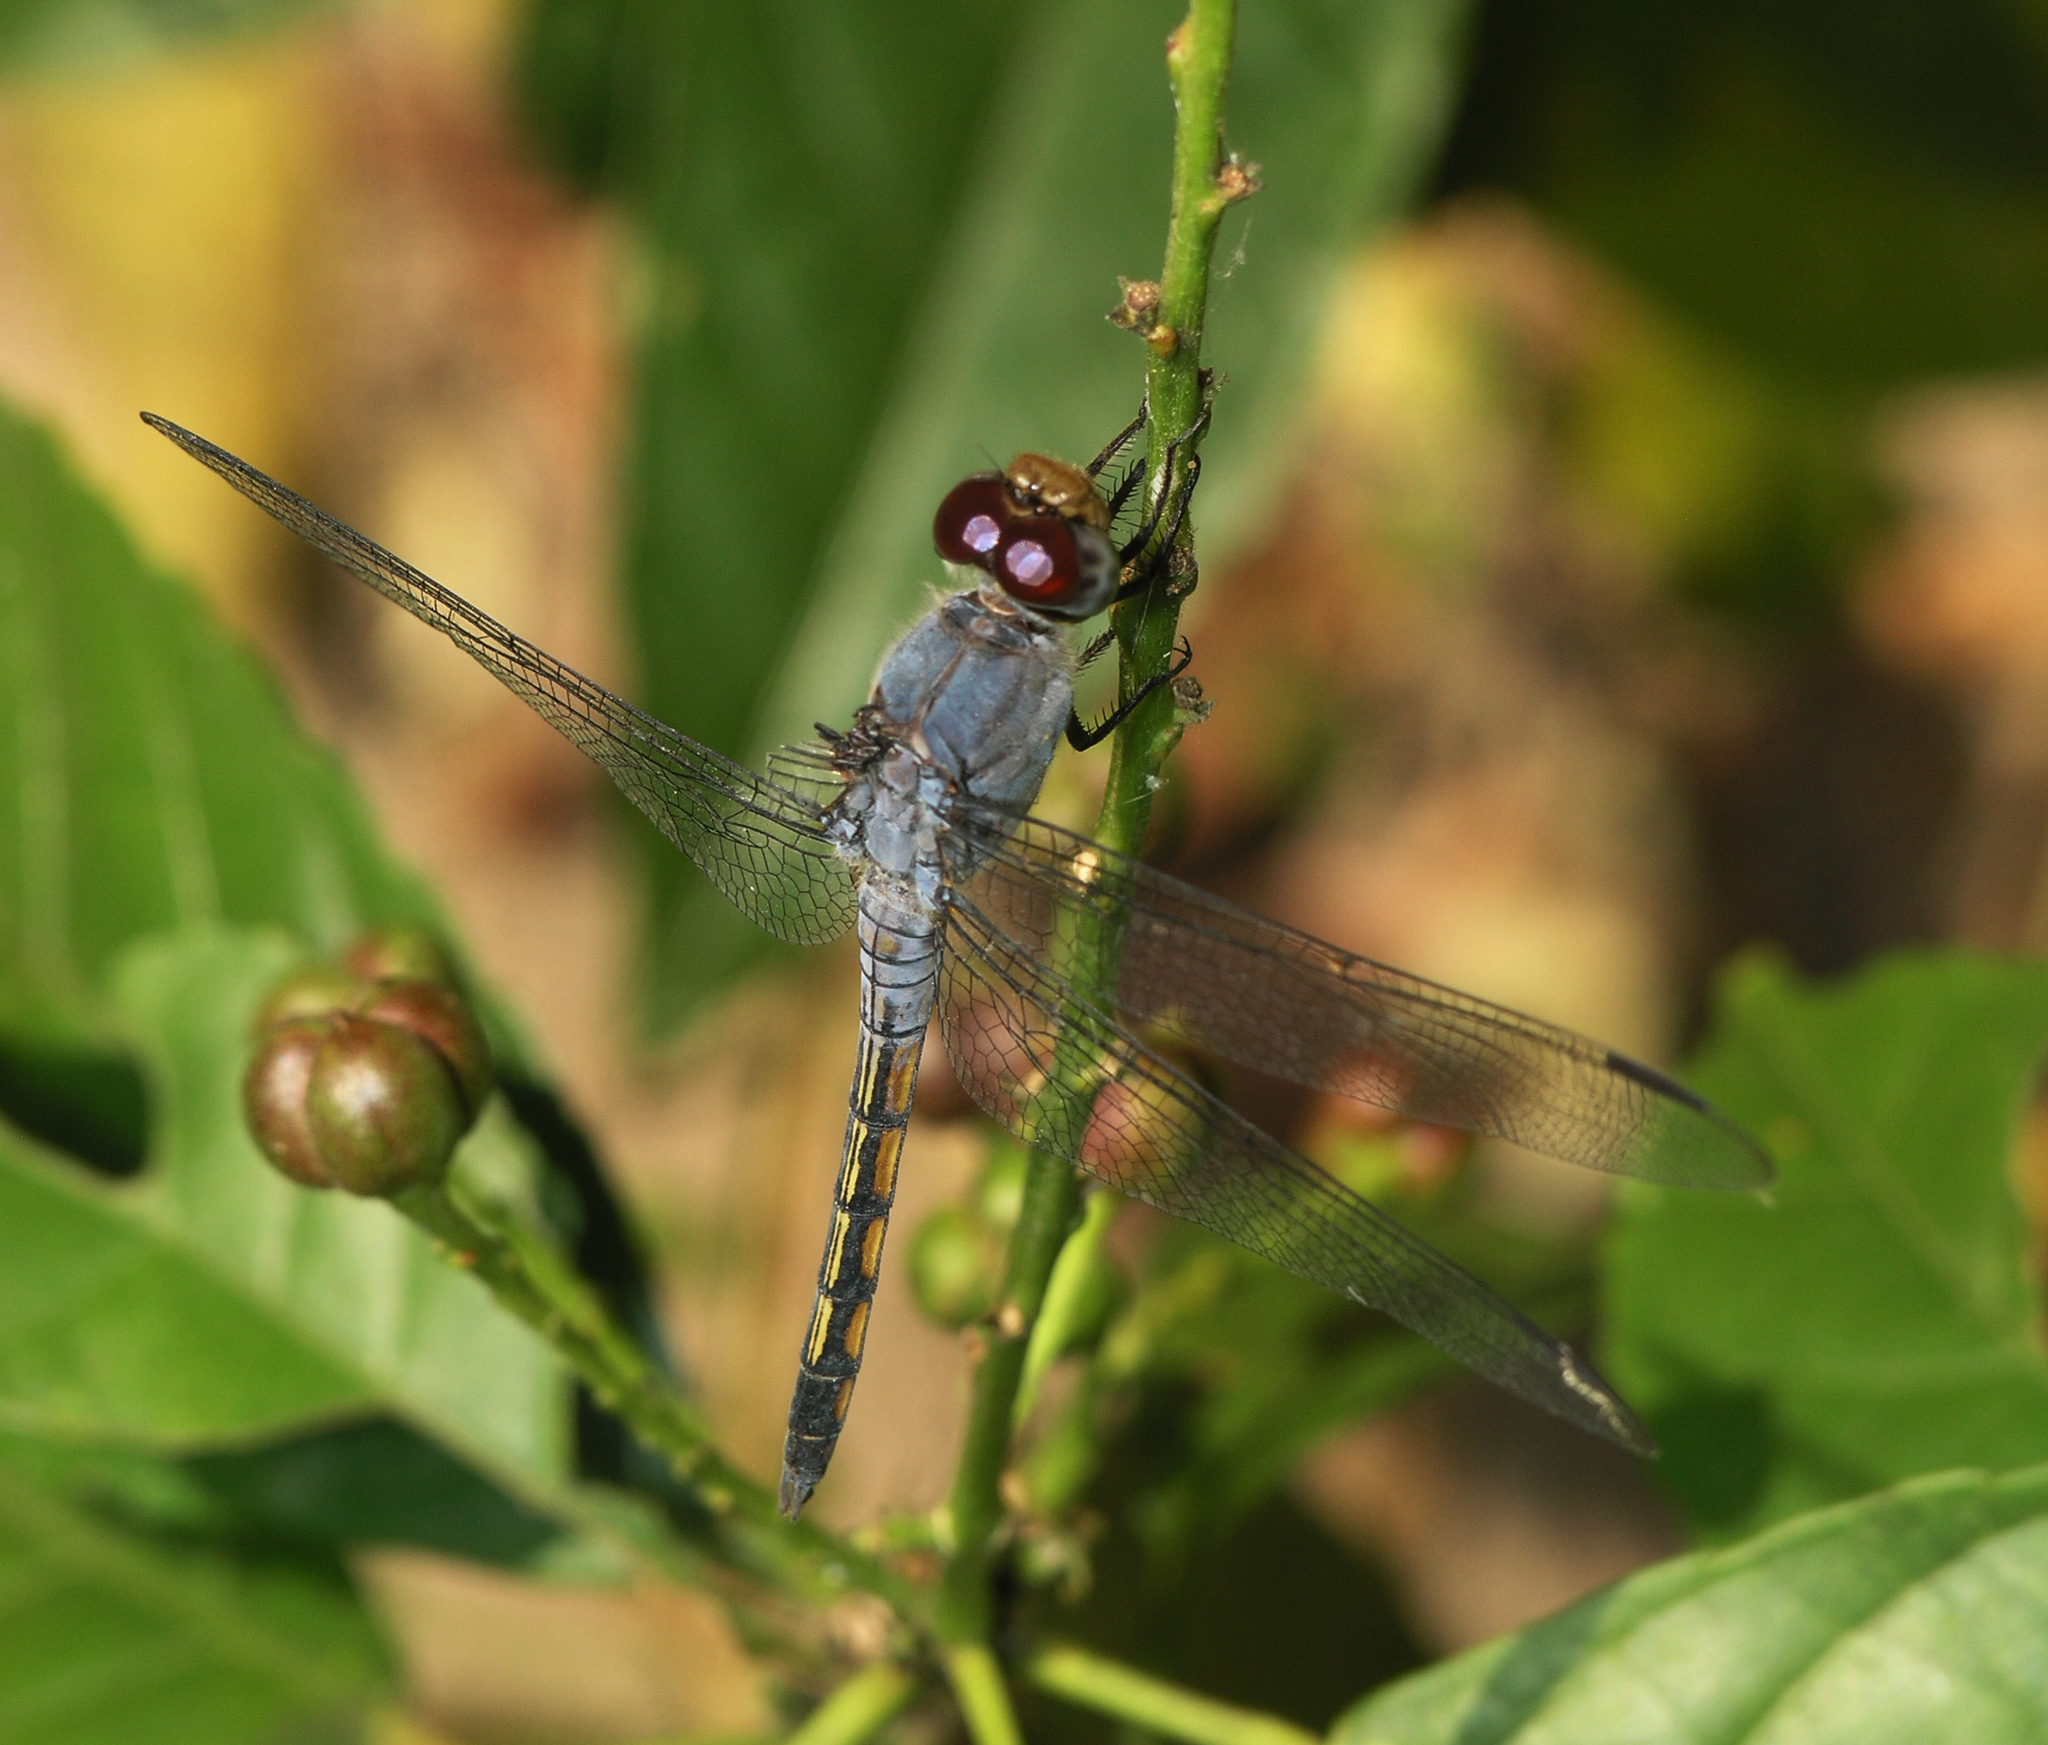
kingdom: Animalia
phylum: Arthropoda
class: Insecta
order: Odonata
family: Libellulidae
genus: Potamarcha
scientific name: Potamarcha congener
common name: Blue chaser
